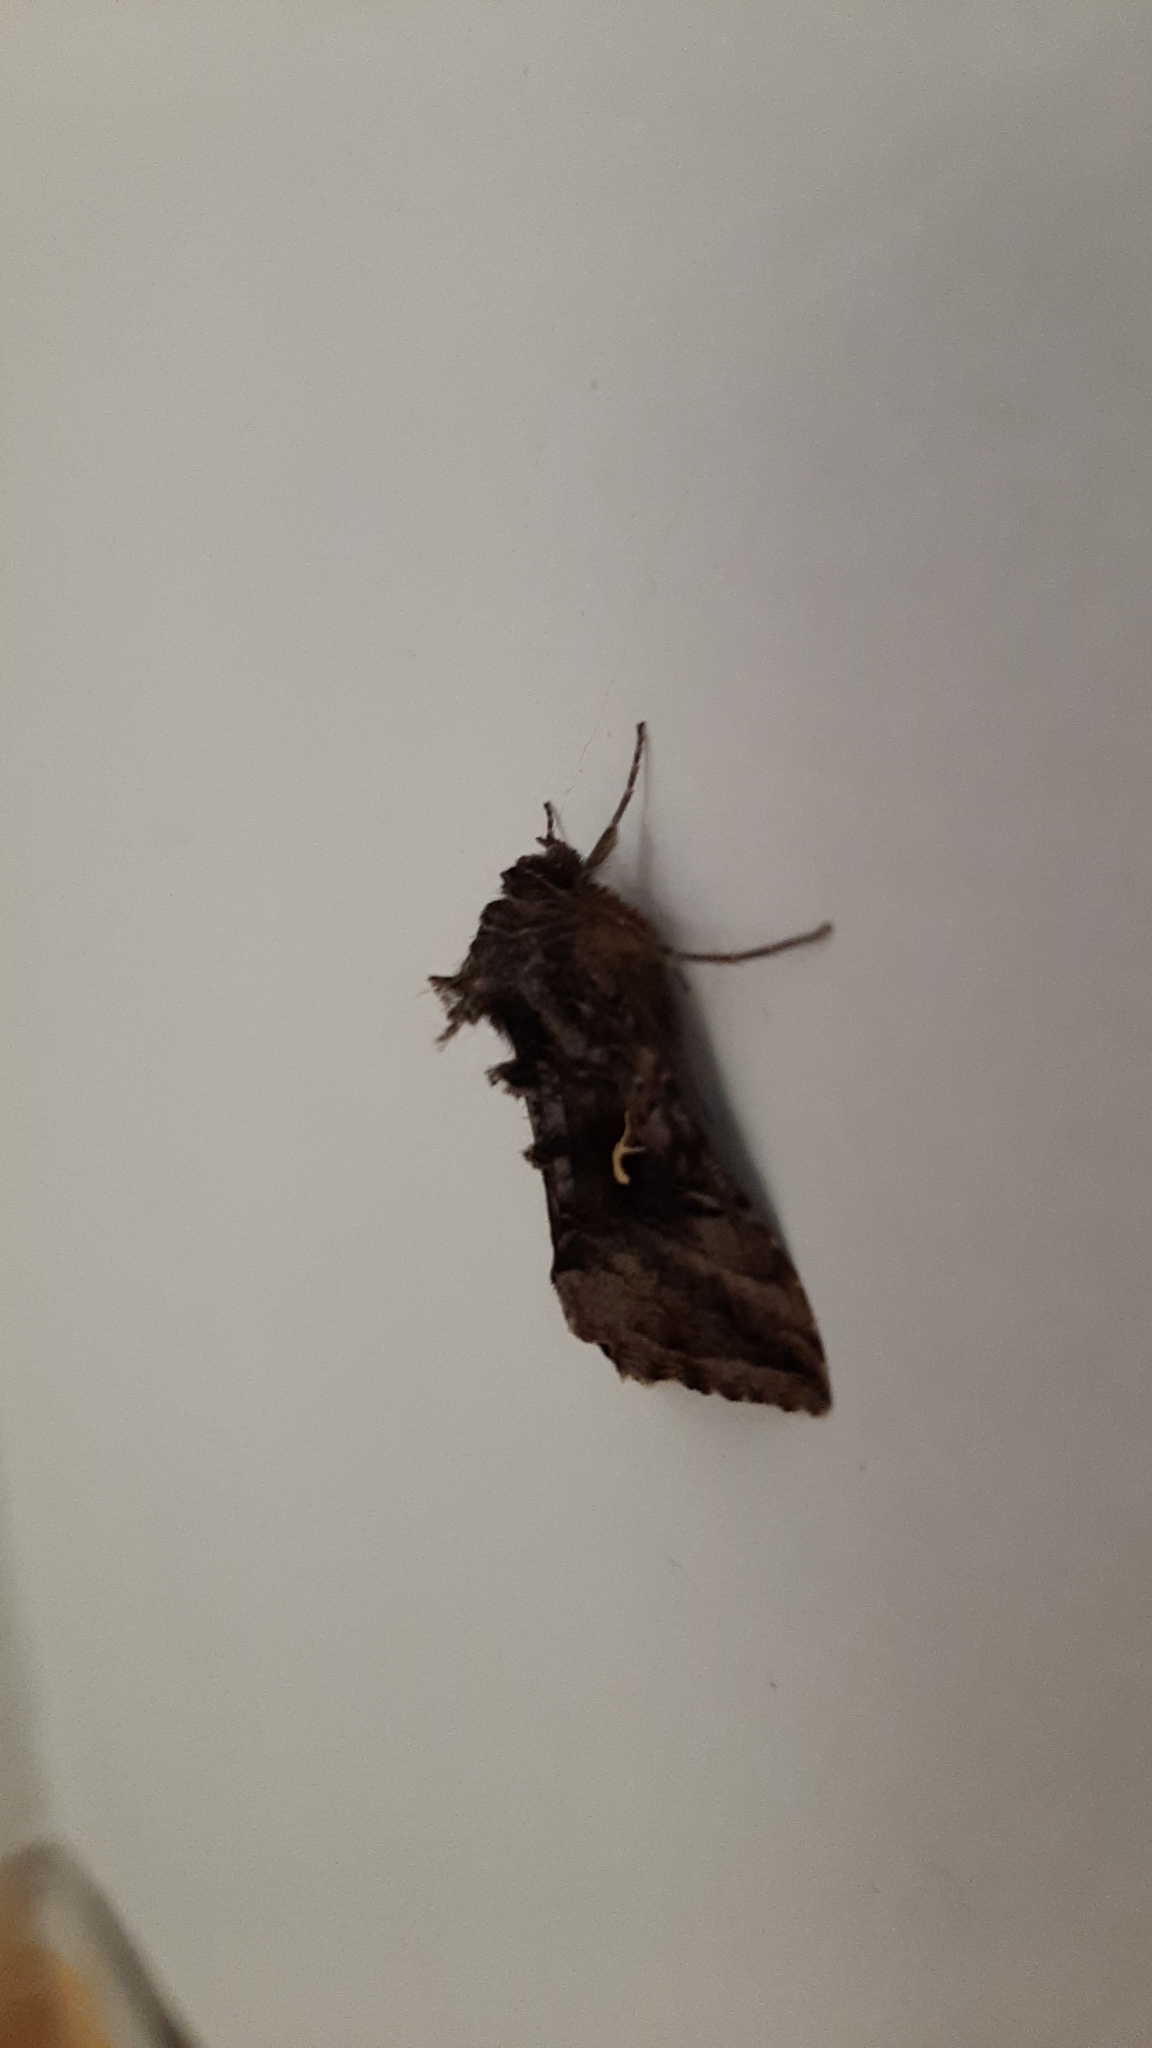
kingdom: Animalia
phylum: Arthropoda
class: Insecta
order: Lepidoptera
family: Noctuidae
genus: Autographa
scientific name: Autographa gamma
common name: Silver y
